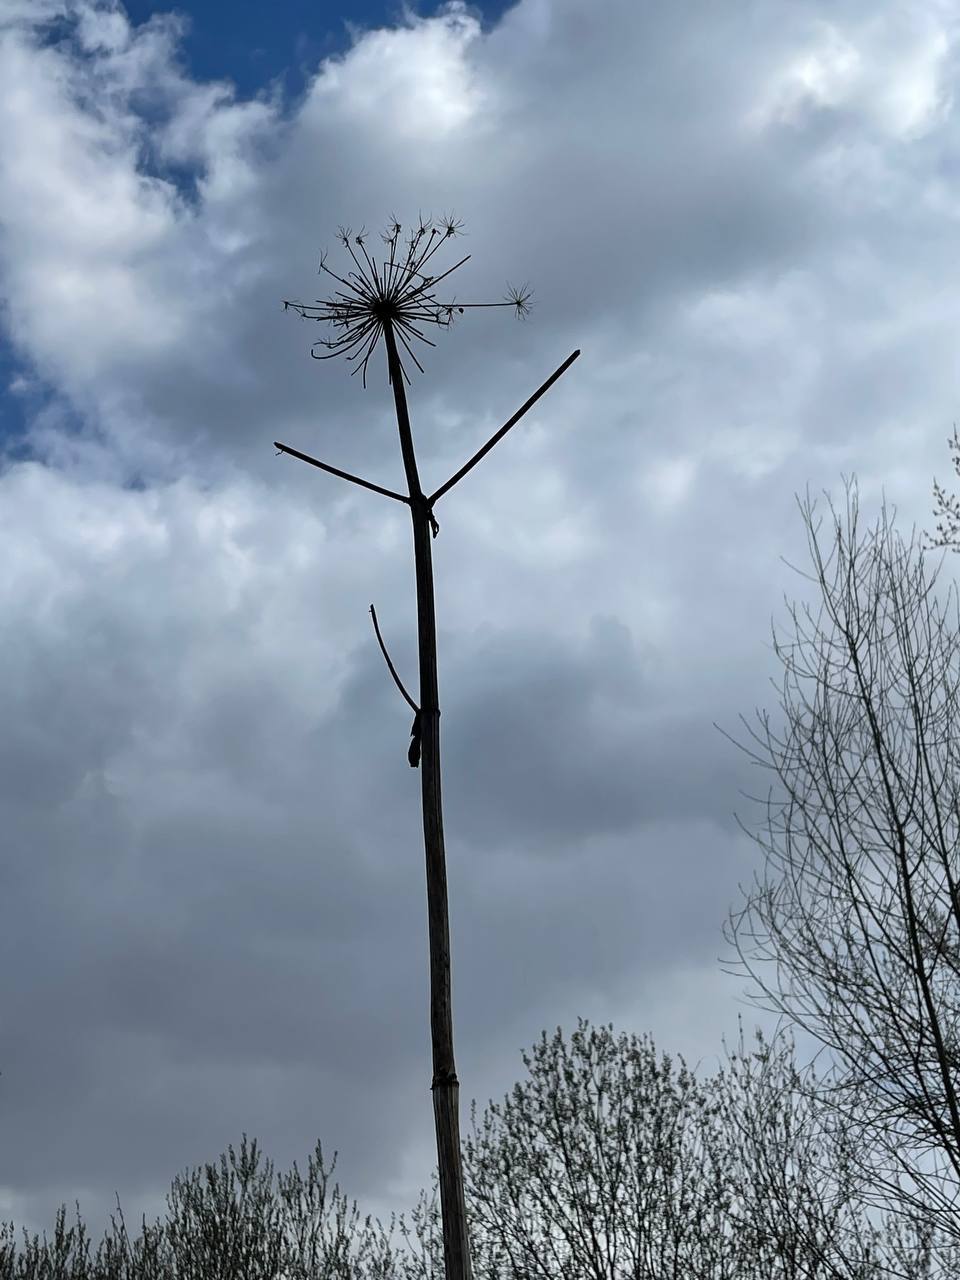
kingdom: Plantae
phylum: Tracheophyta
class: Magnoliopsida
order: Apiales
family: Apiaceae
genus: Heracleum
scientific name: Heracleum sosnowskyi
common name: Sosnowsky's hogweed
